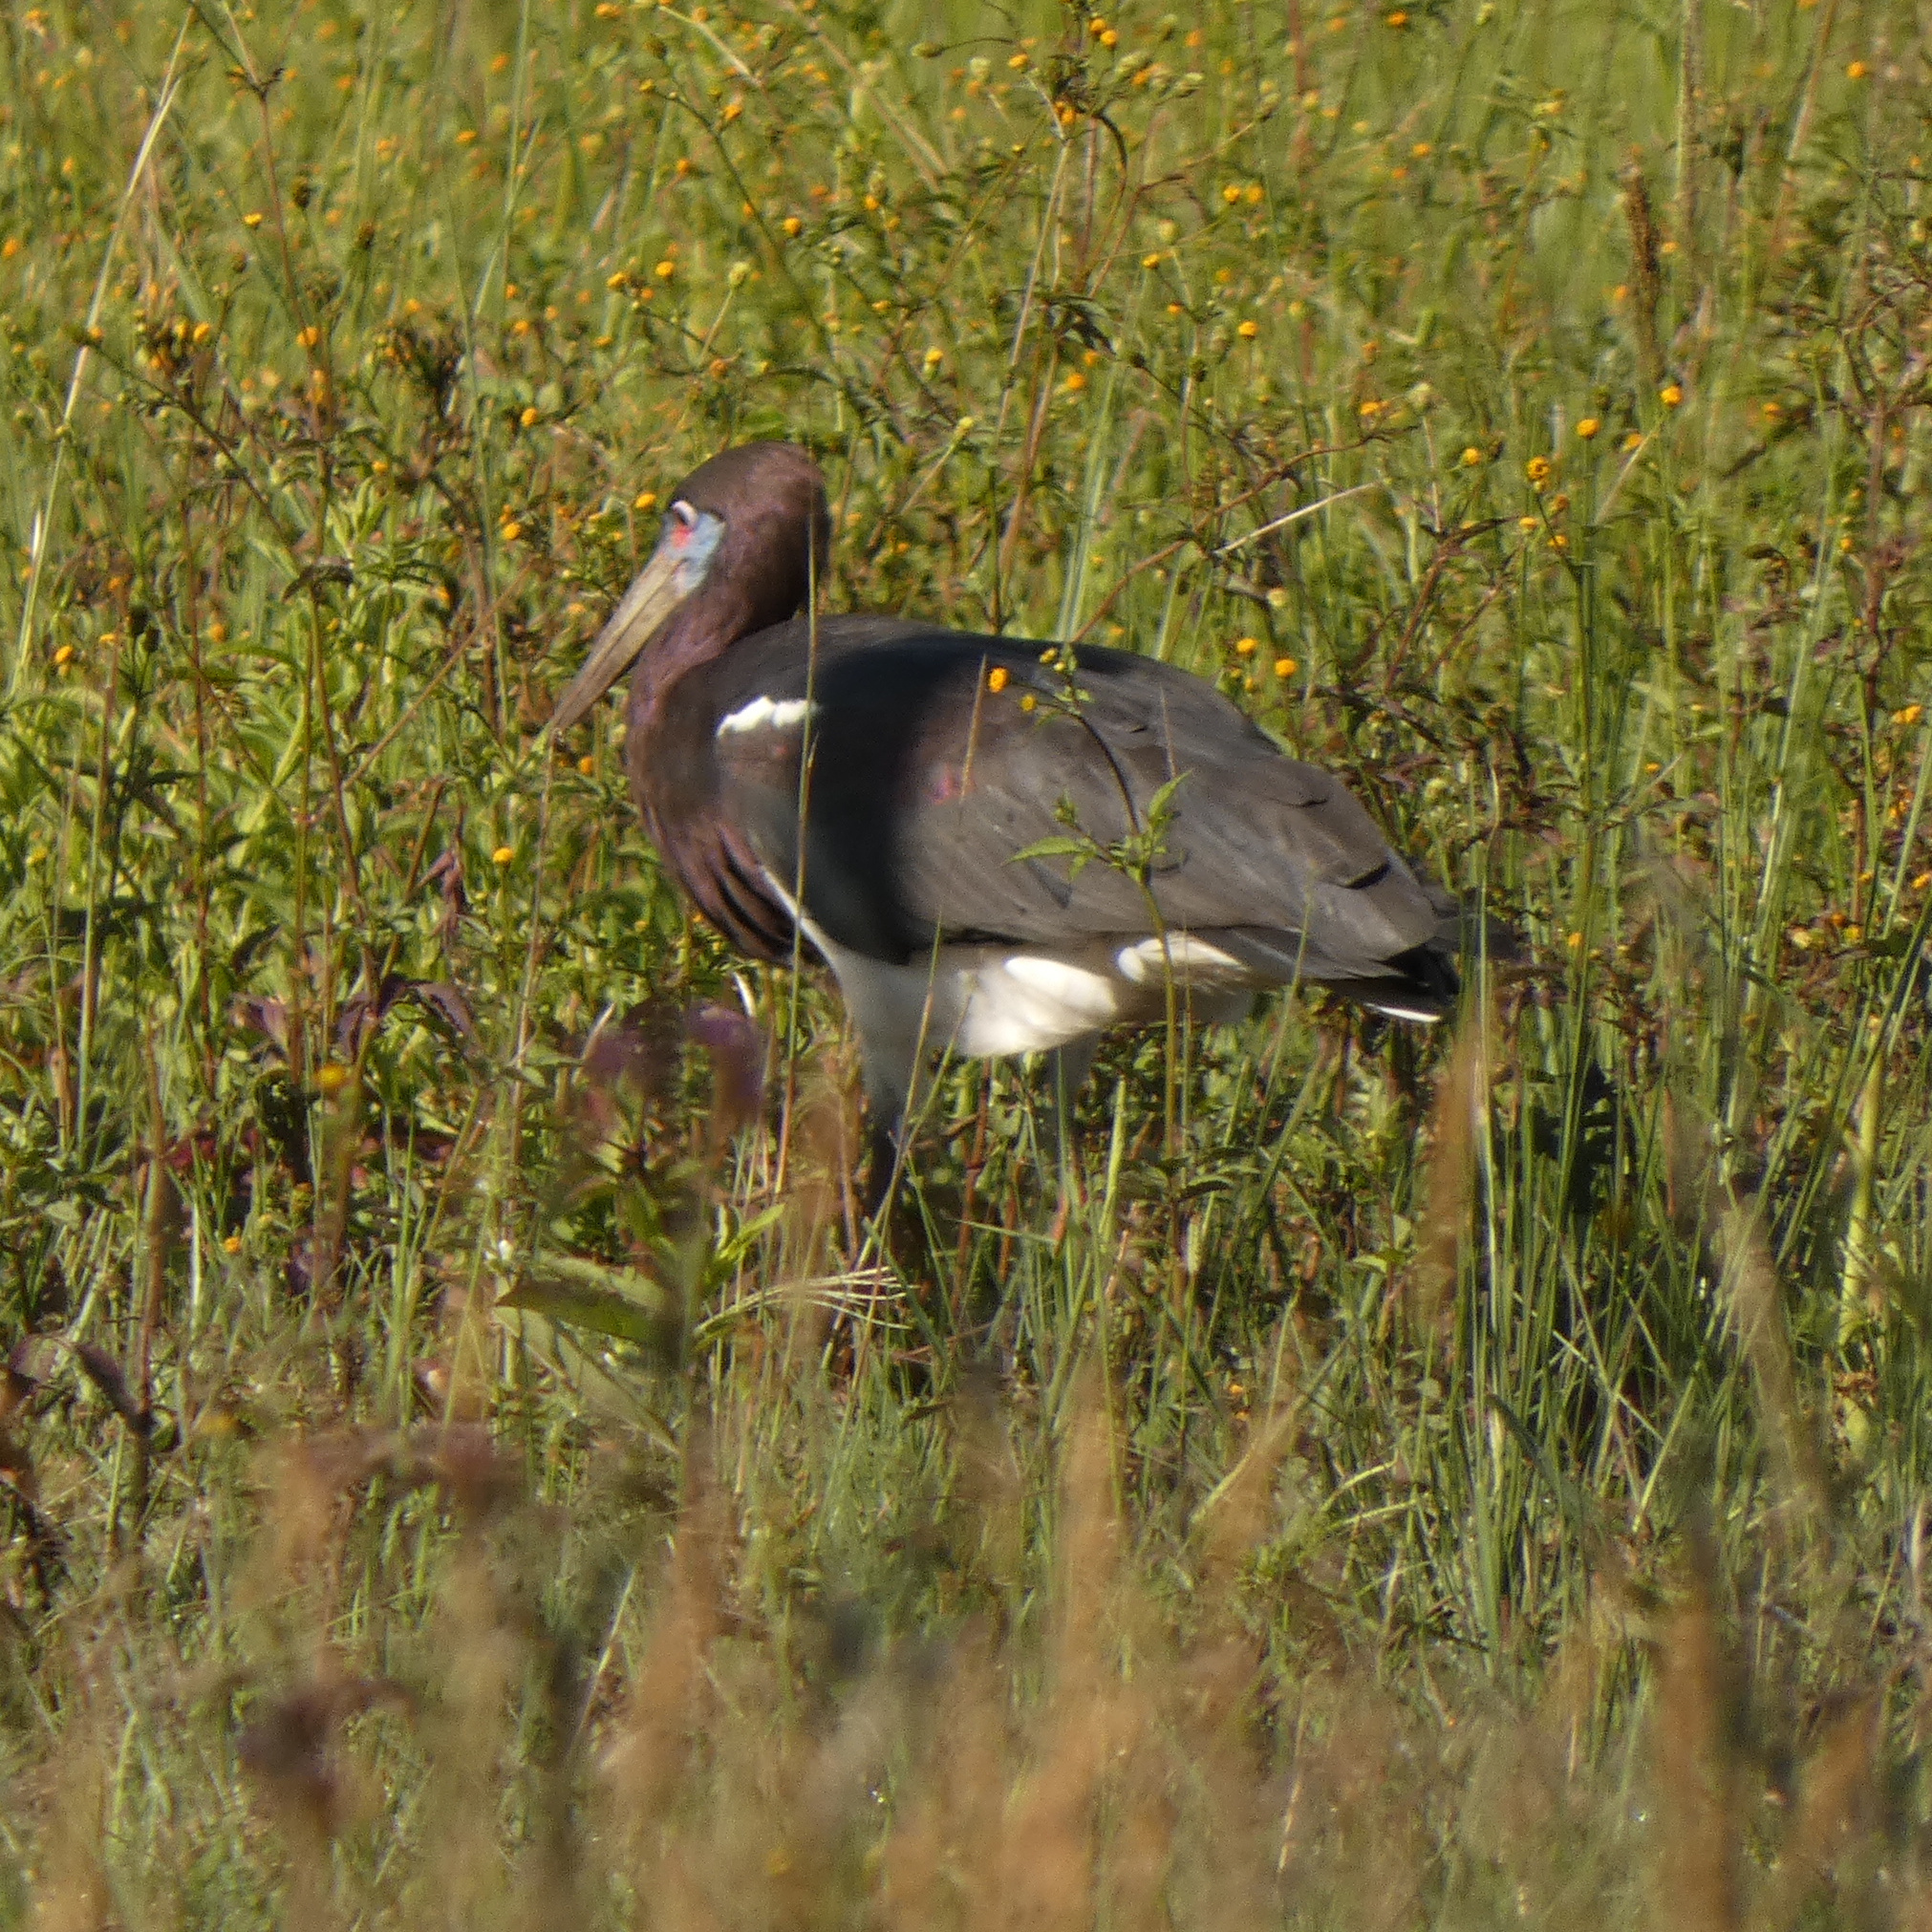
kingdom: Animalia
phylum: Chordata
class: Aves
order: Ciconiiformes
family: Ciconiidae
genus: Ciconia
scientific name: Ciconia abdimii
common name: Abdim's stork
